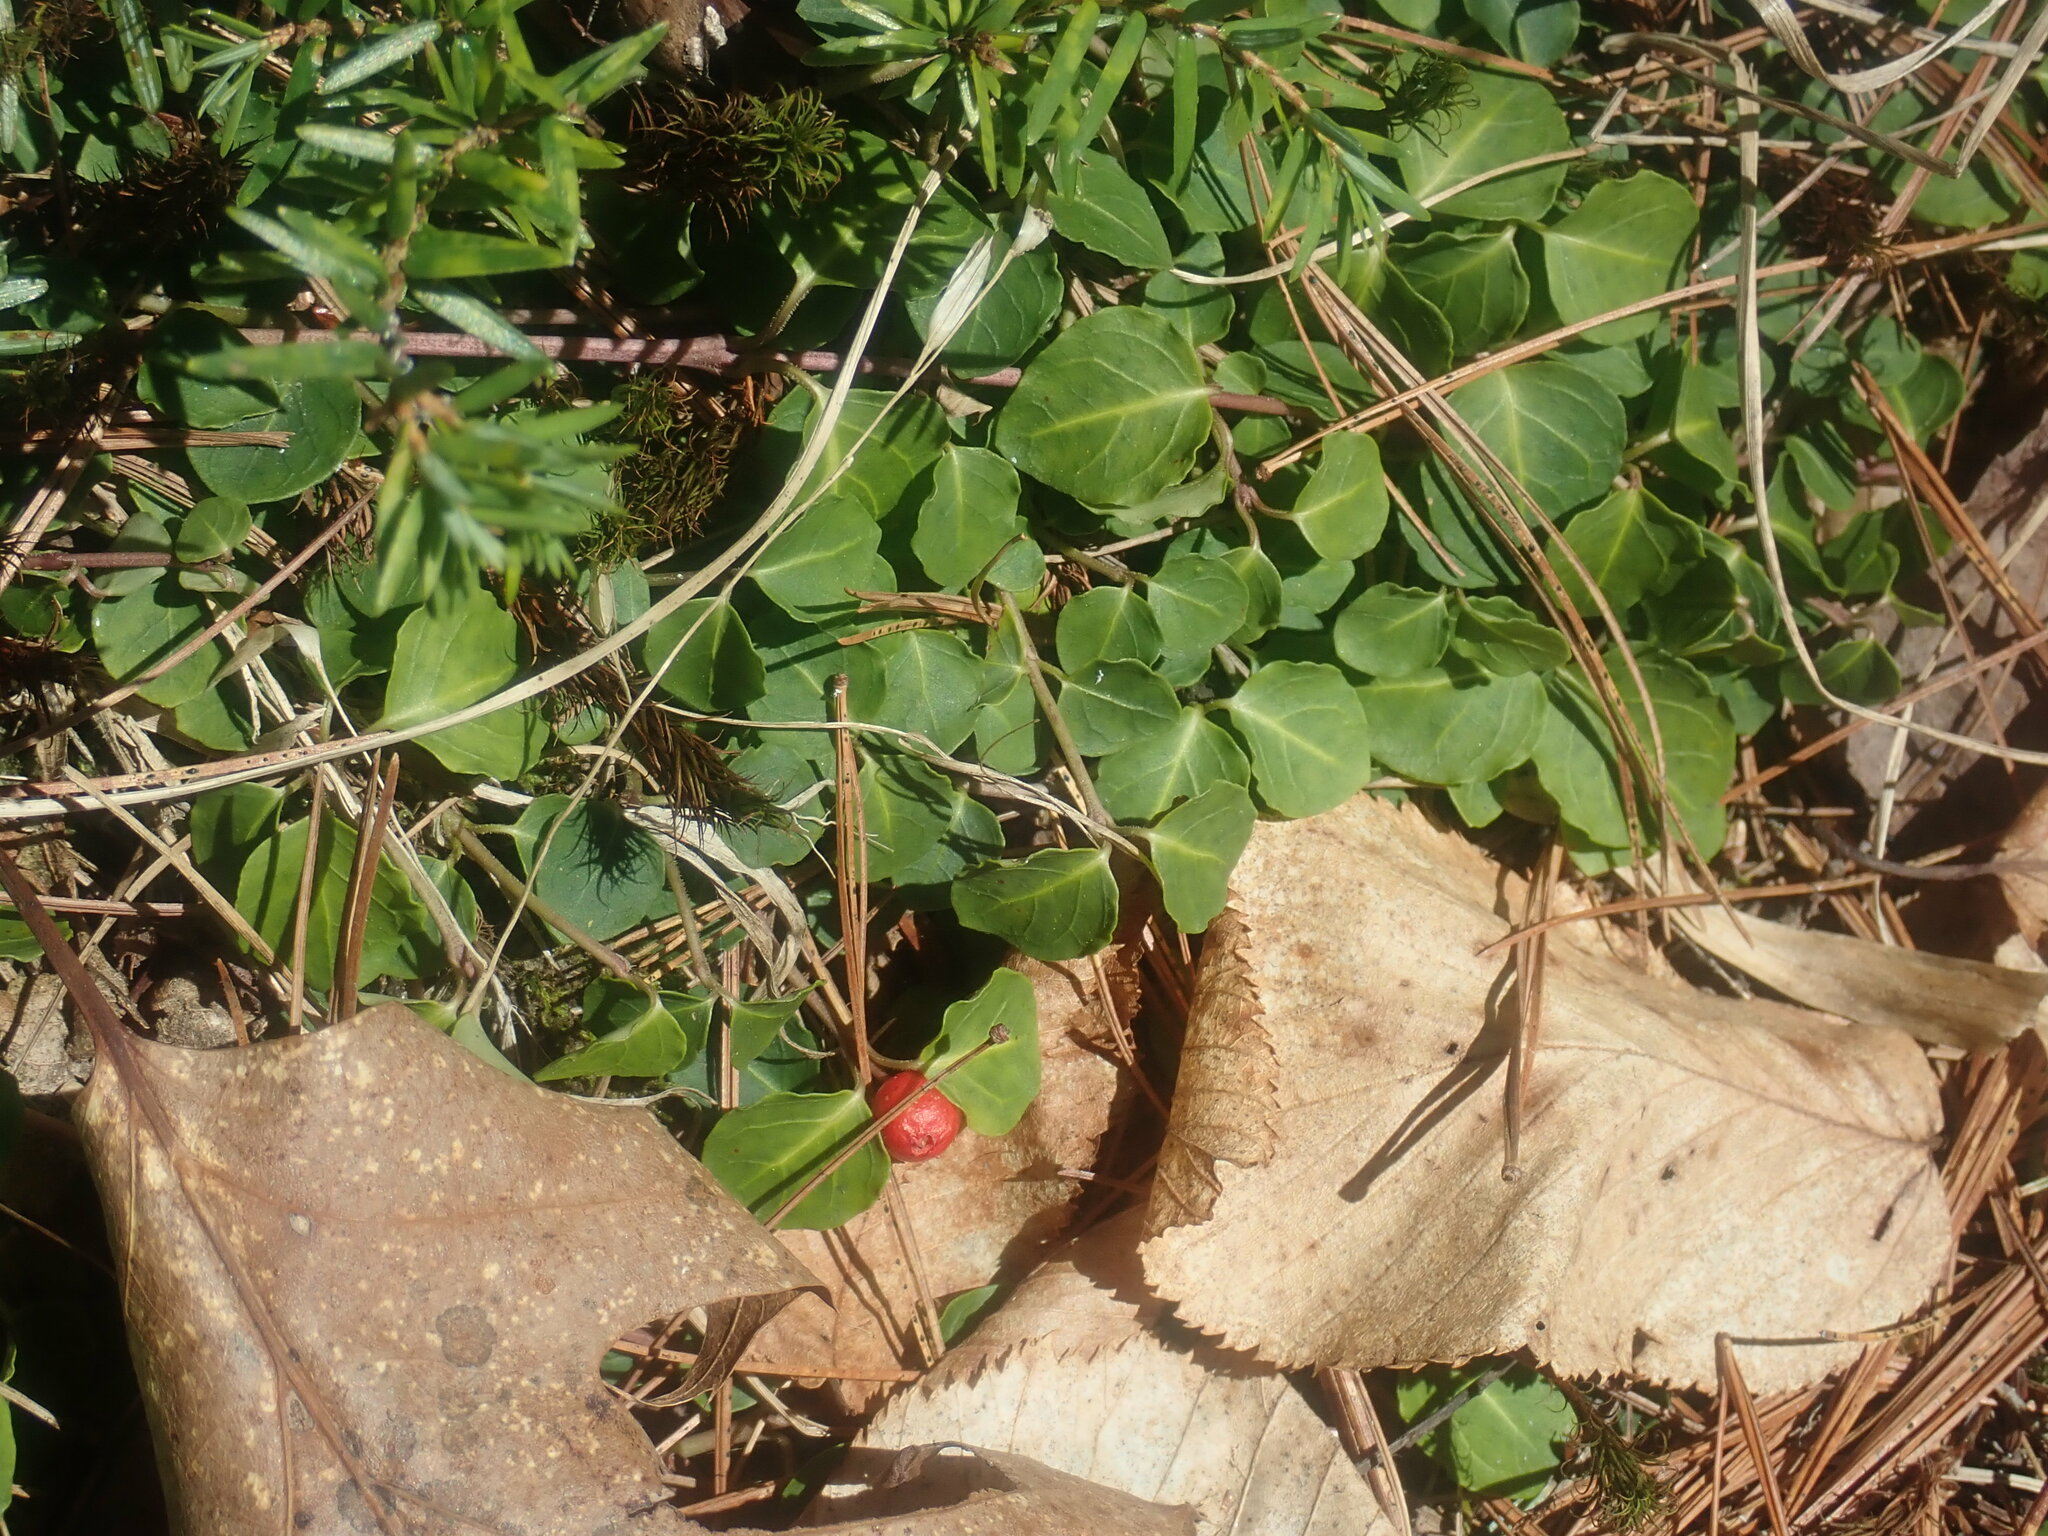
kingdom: Plantae
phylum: Tracheophyta
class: Magnoliopsida
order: Gentianales
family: Rubiaceae
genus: Mitchella
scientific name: Mitchella repens
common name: Partridge-berry
